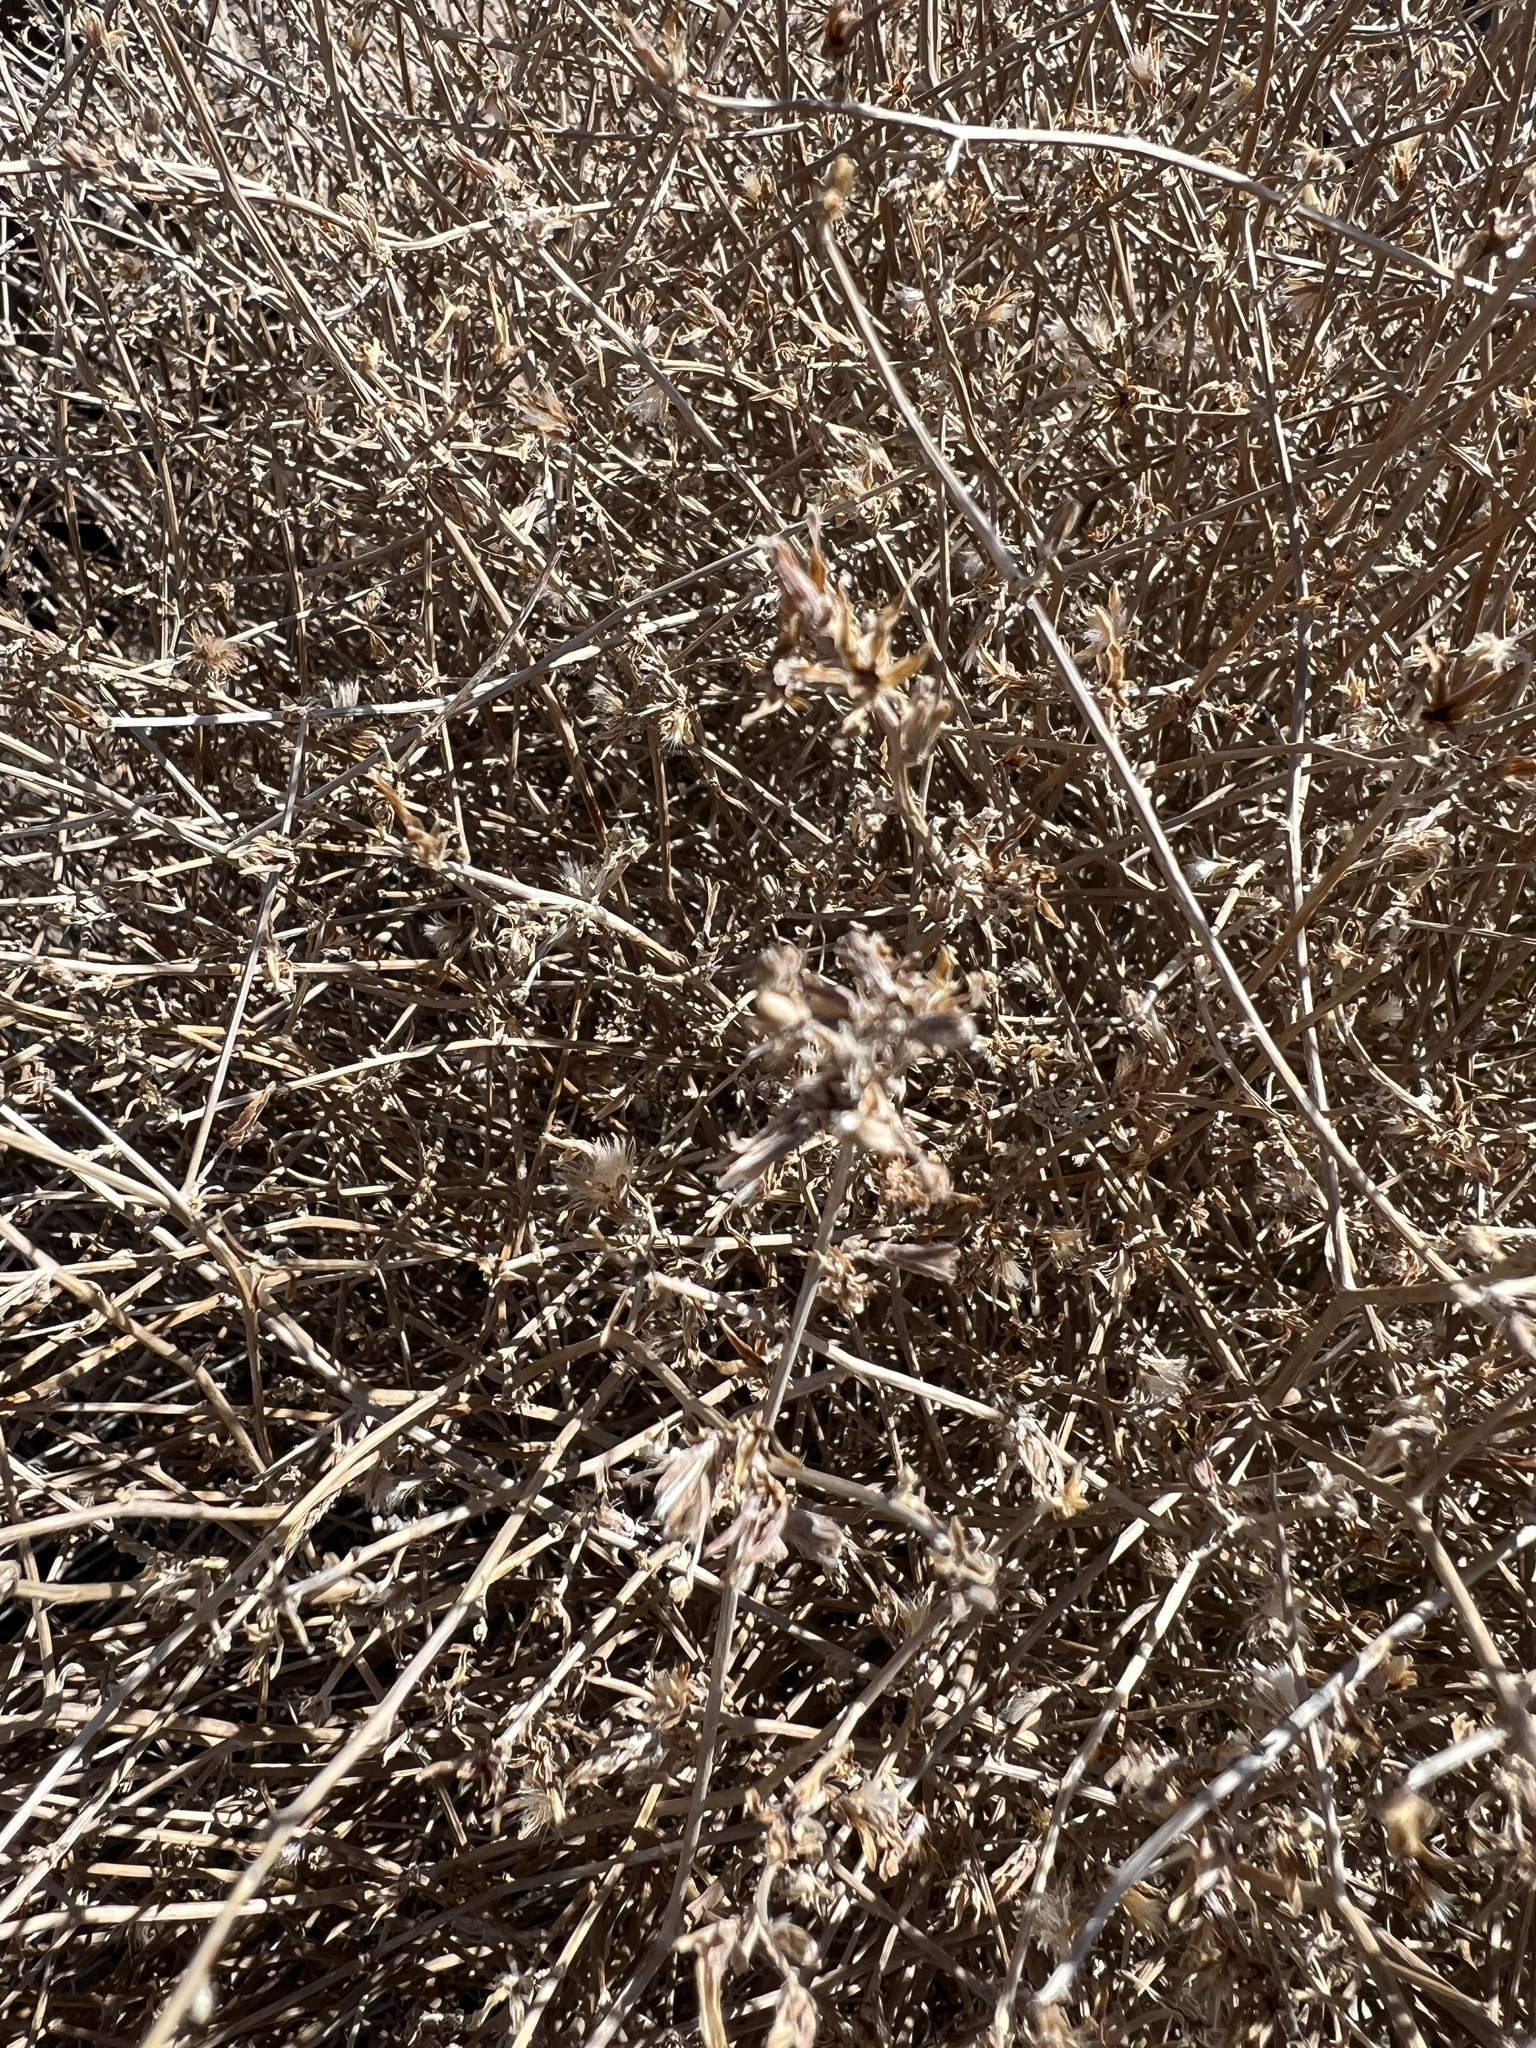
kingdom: Plantae
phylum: Tracheophyta
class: Magnoliopsida
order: Asterales
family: Asteraceae
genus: Stephanomeria
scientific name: Stephanomeria pauciflora
